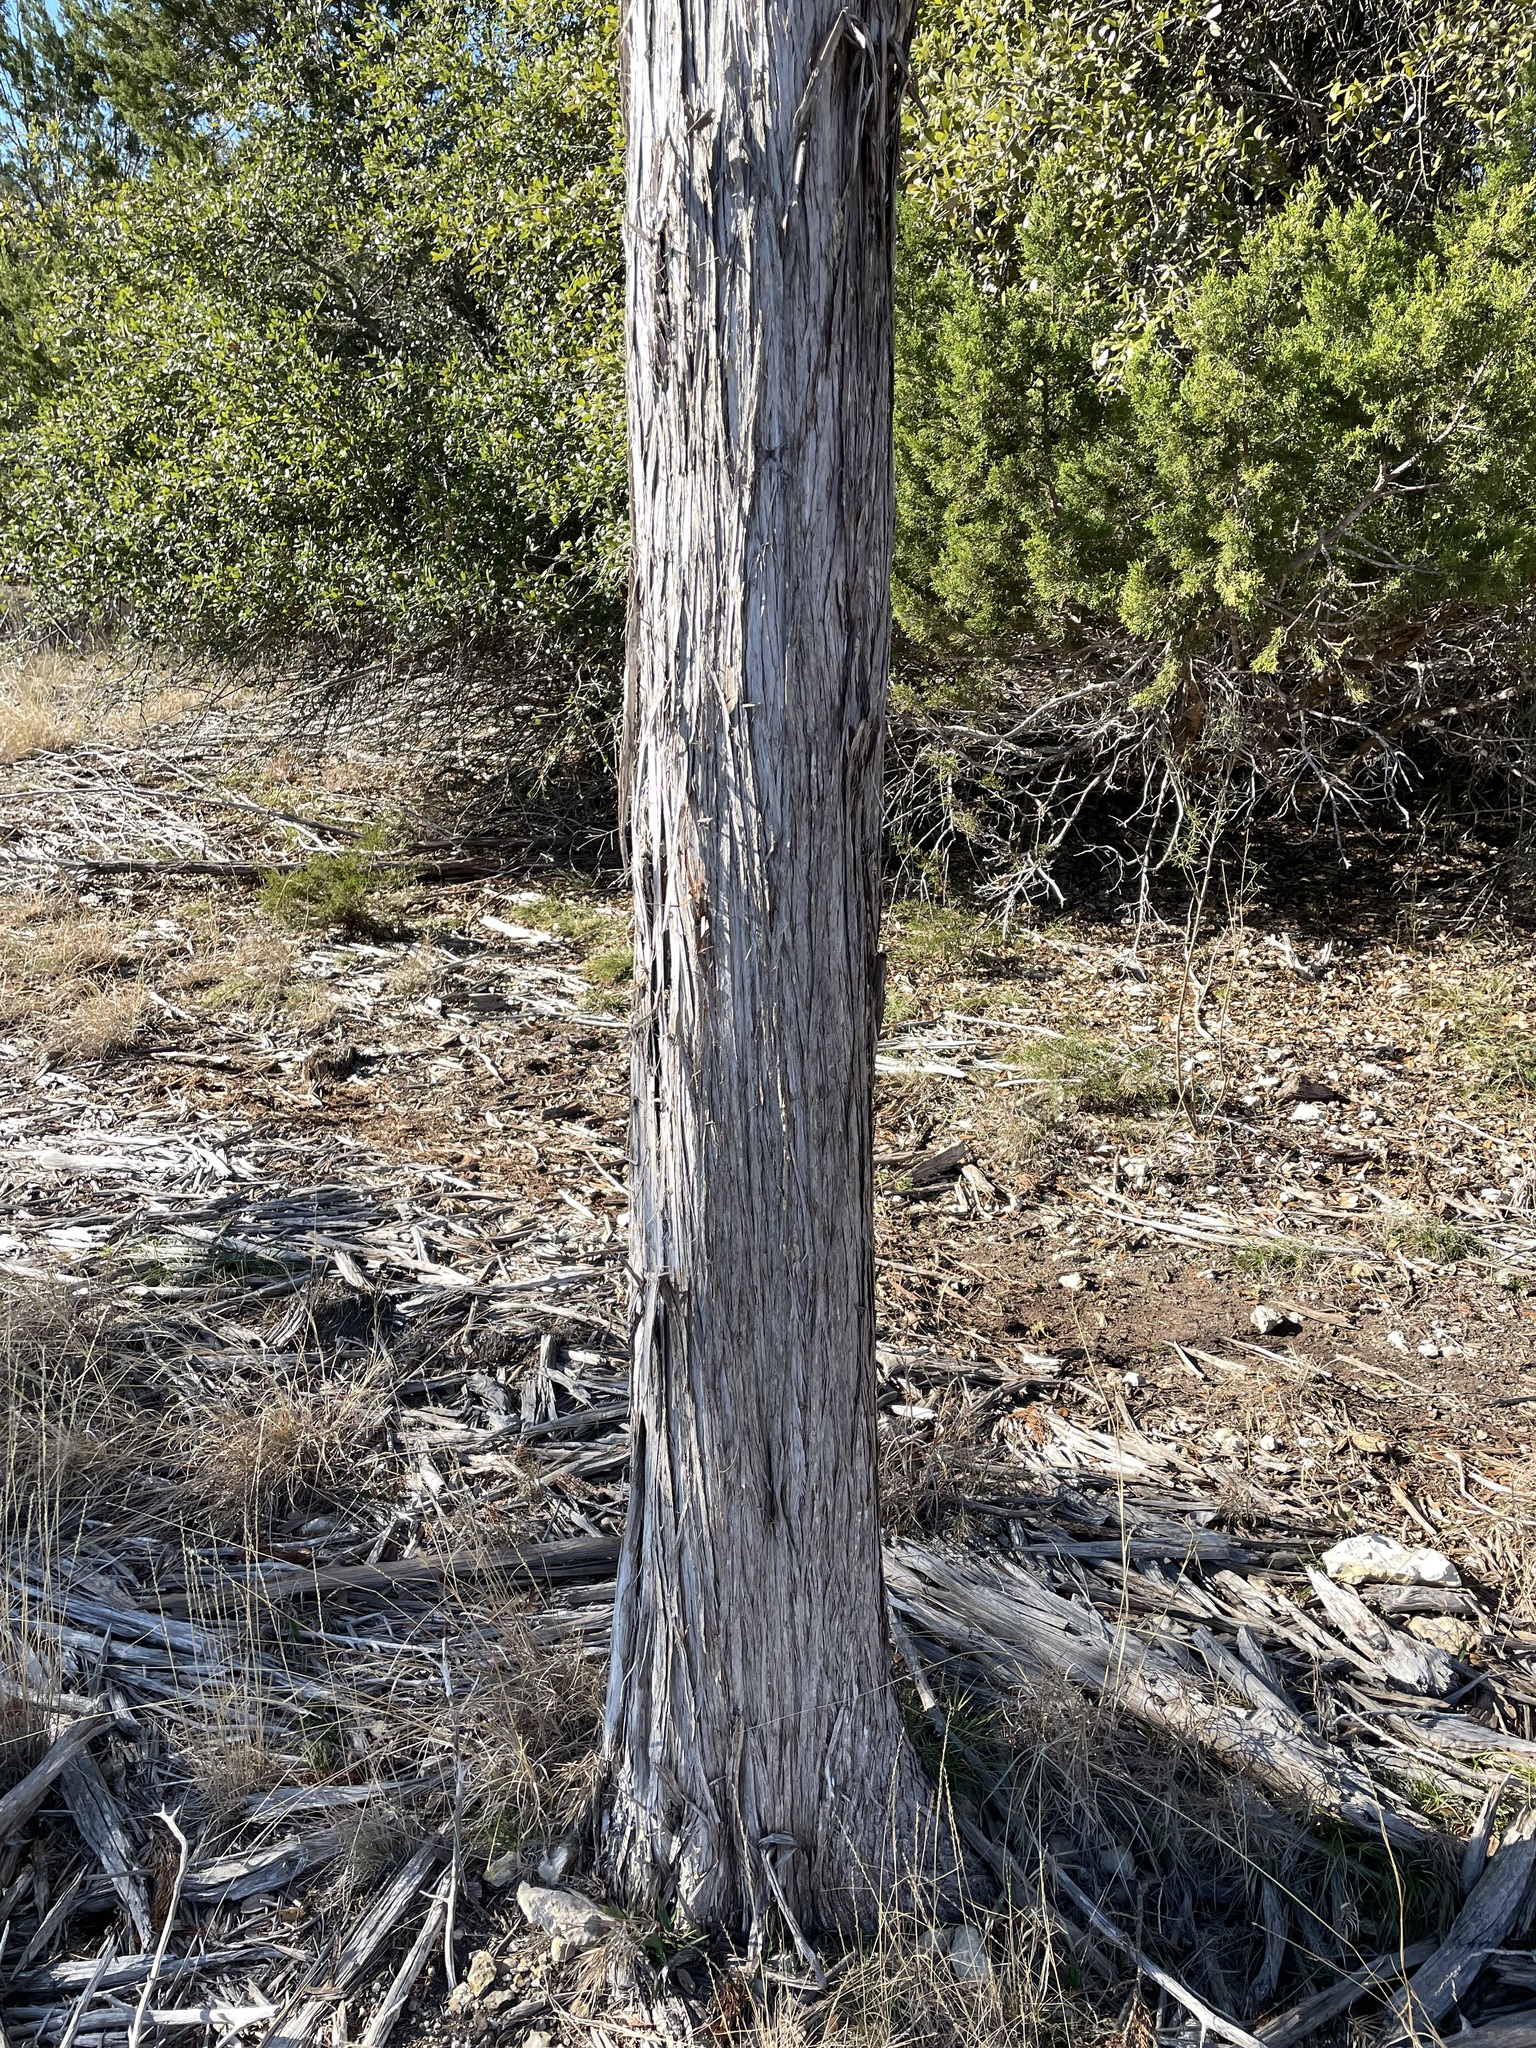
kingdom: Plantae
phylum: Tracheophyta
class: Pinopsida
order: Pinales
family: Cupressaceae
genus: Juniperus
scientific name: Juniperus ashei
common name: Mexican juniper
